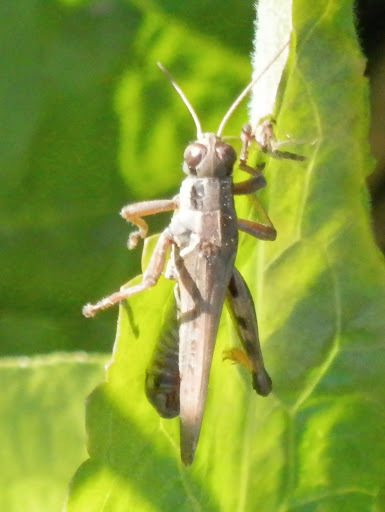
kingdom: Animalia
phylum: Arthropoda
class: Insecta
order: Orthoptera
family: Acrididae
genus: Melanoplus
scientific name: Melanoplus femurrubrum
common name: Red-legged grasshopper
